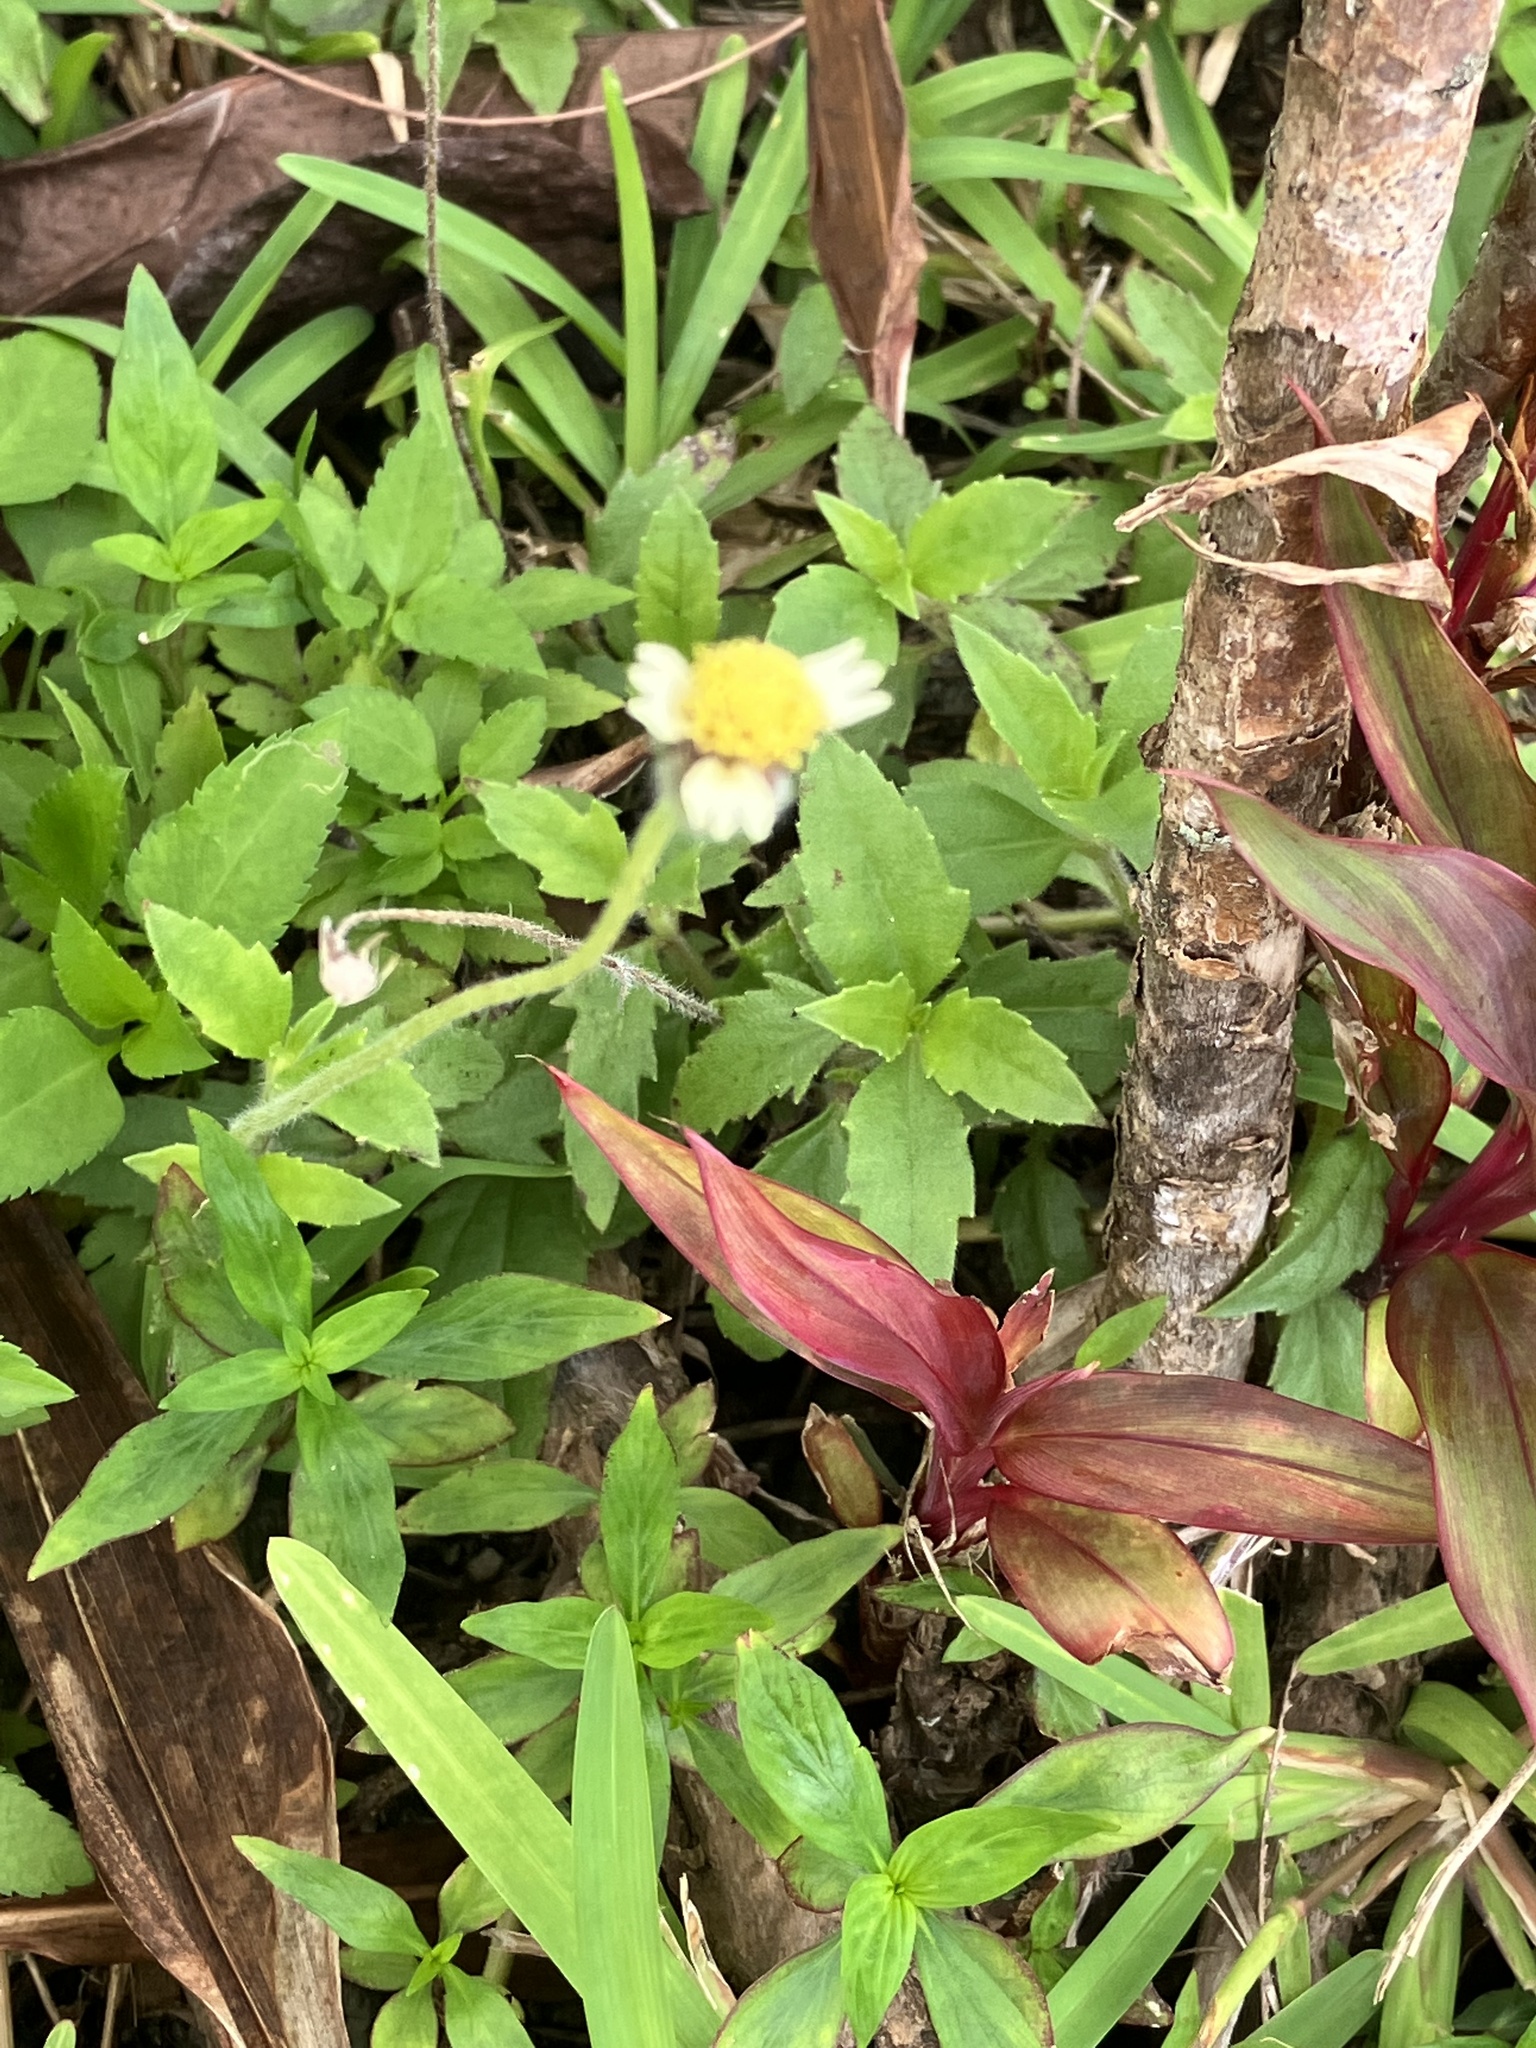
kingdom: Plantae
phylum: Tracheophyta
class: Magnoliopsida
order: Asterales
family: Asteraceae
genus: Tridax
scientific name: Tridax procumbens
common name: Coatbuttons
